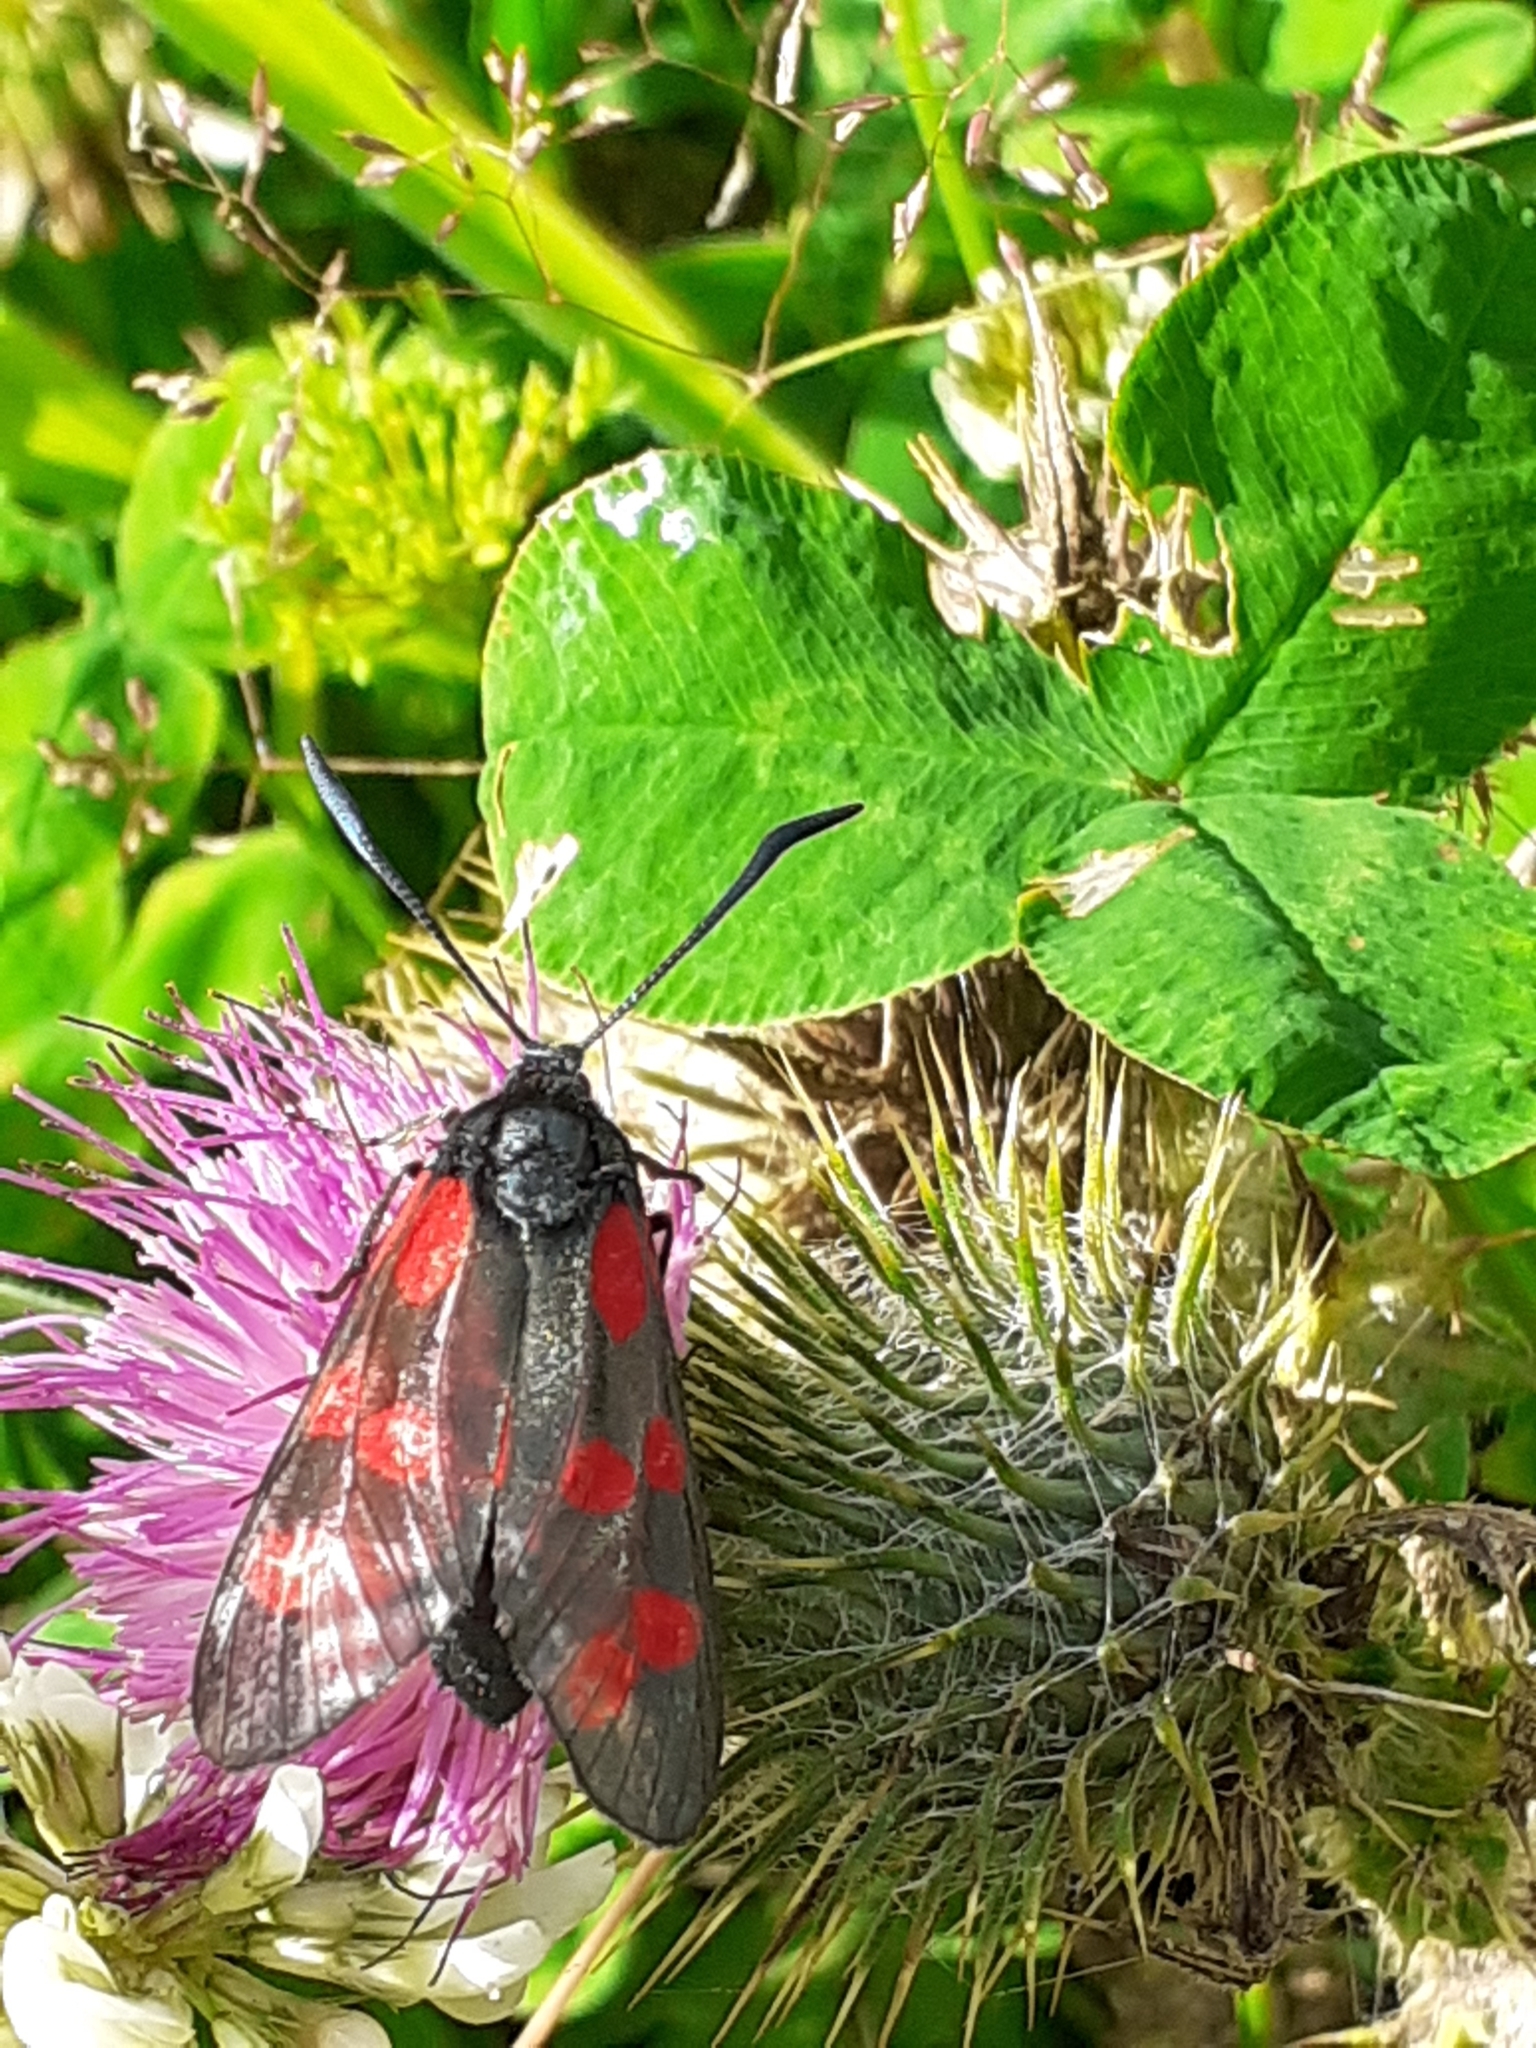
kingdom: Animalia
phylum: Arthropoda
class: Insecta
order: Lepidoptera
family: Zygaenidae
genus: Zygaena
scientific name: Zygaena filipendulae
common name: Six-spot burnet
